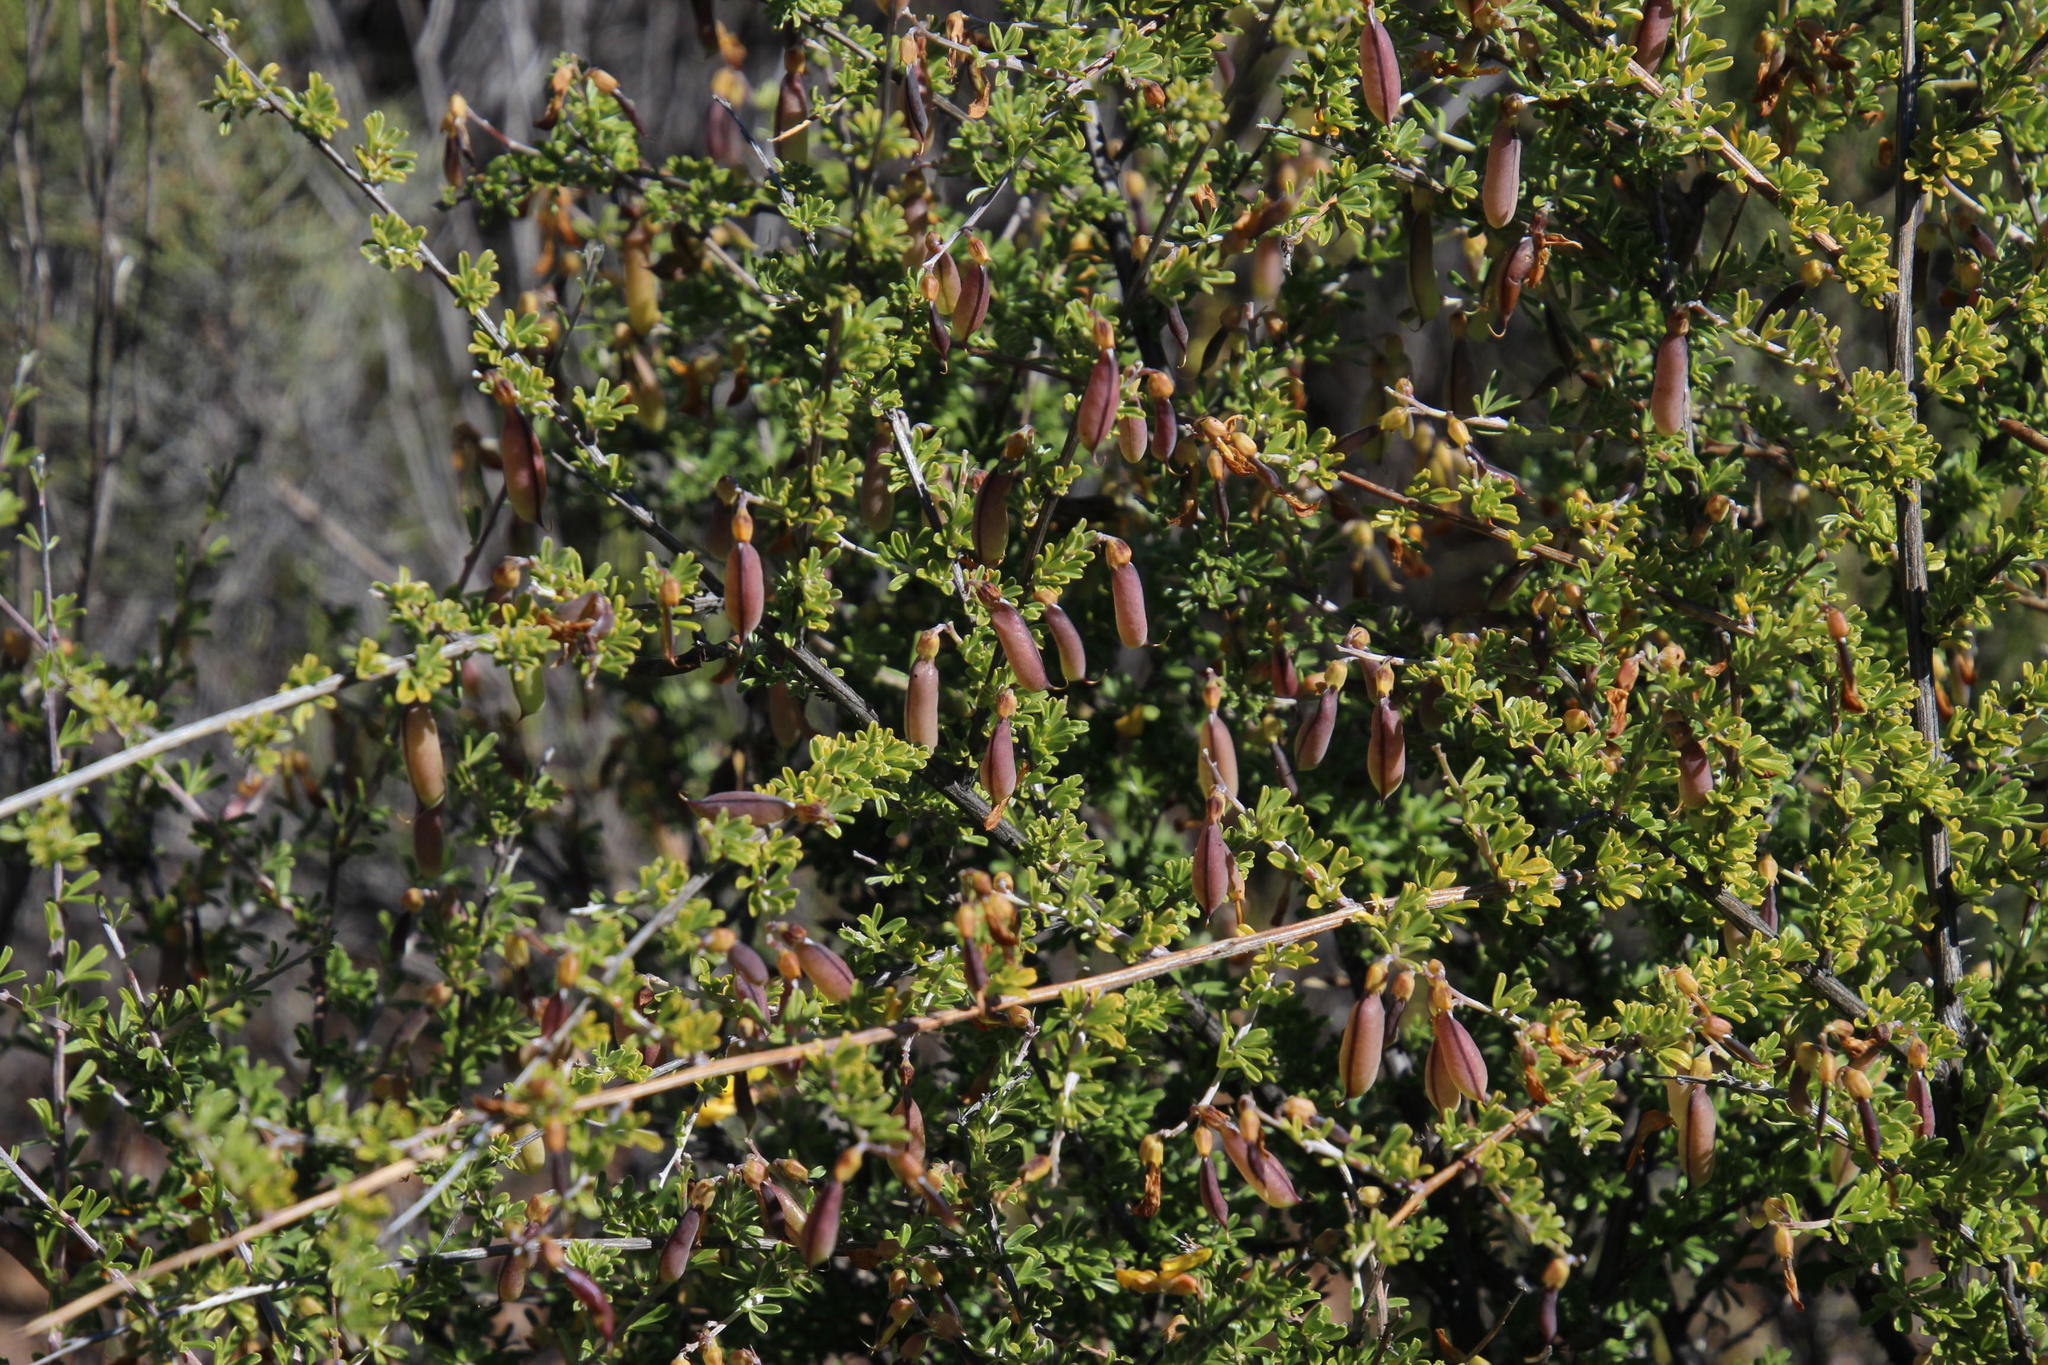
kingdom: Plantae
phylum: Tracheophyta
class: Magnoliopsida
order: Fabales
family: Fabaceae
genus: Wiborgiella
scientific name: Wiborgiella leipoldtiana
